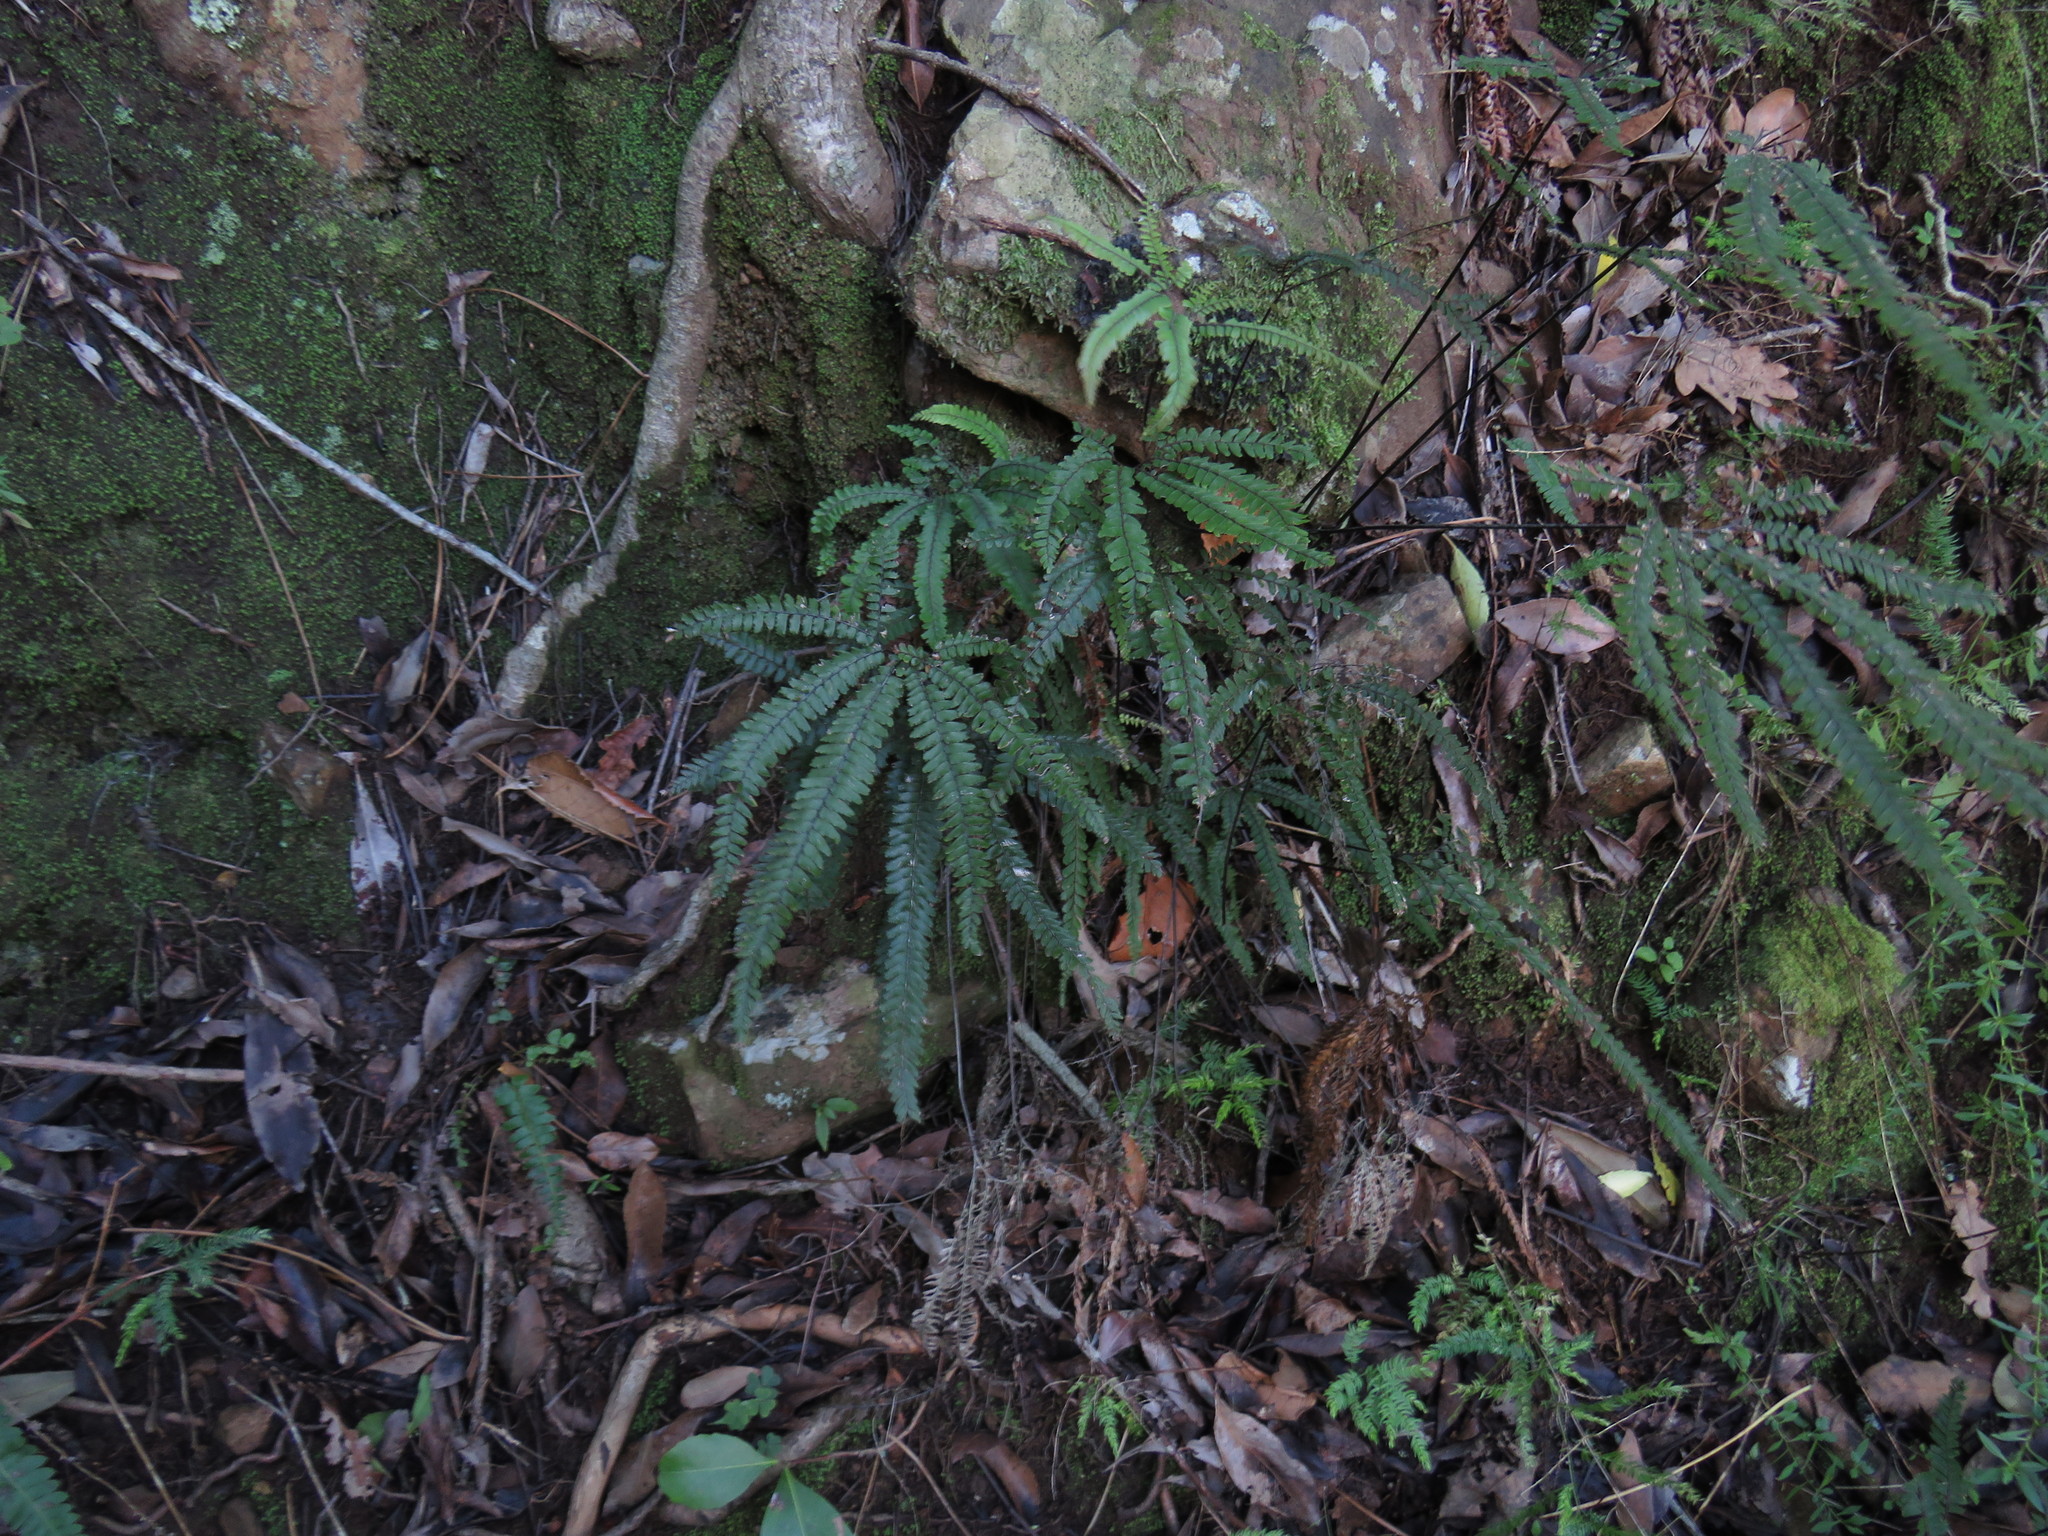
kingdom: Plantae
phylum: Tracheophyta
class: Polypodiopsida
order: Polypodiales
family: Pteridaceae
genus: Adiantum
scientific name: Adiantum hispidulum
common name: Rough maidenhair
